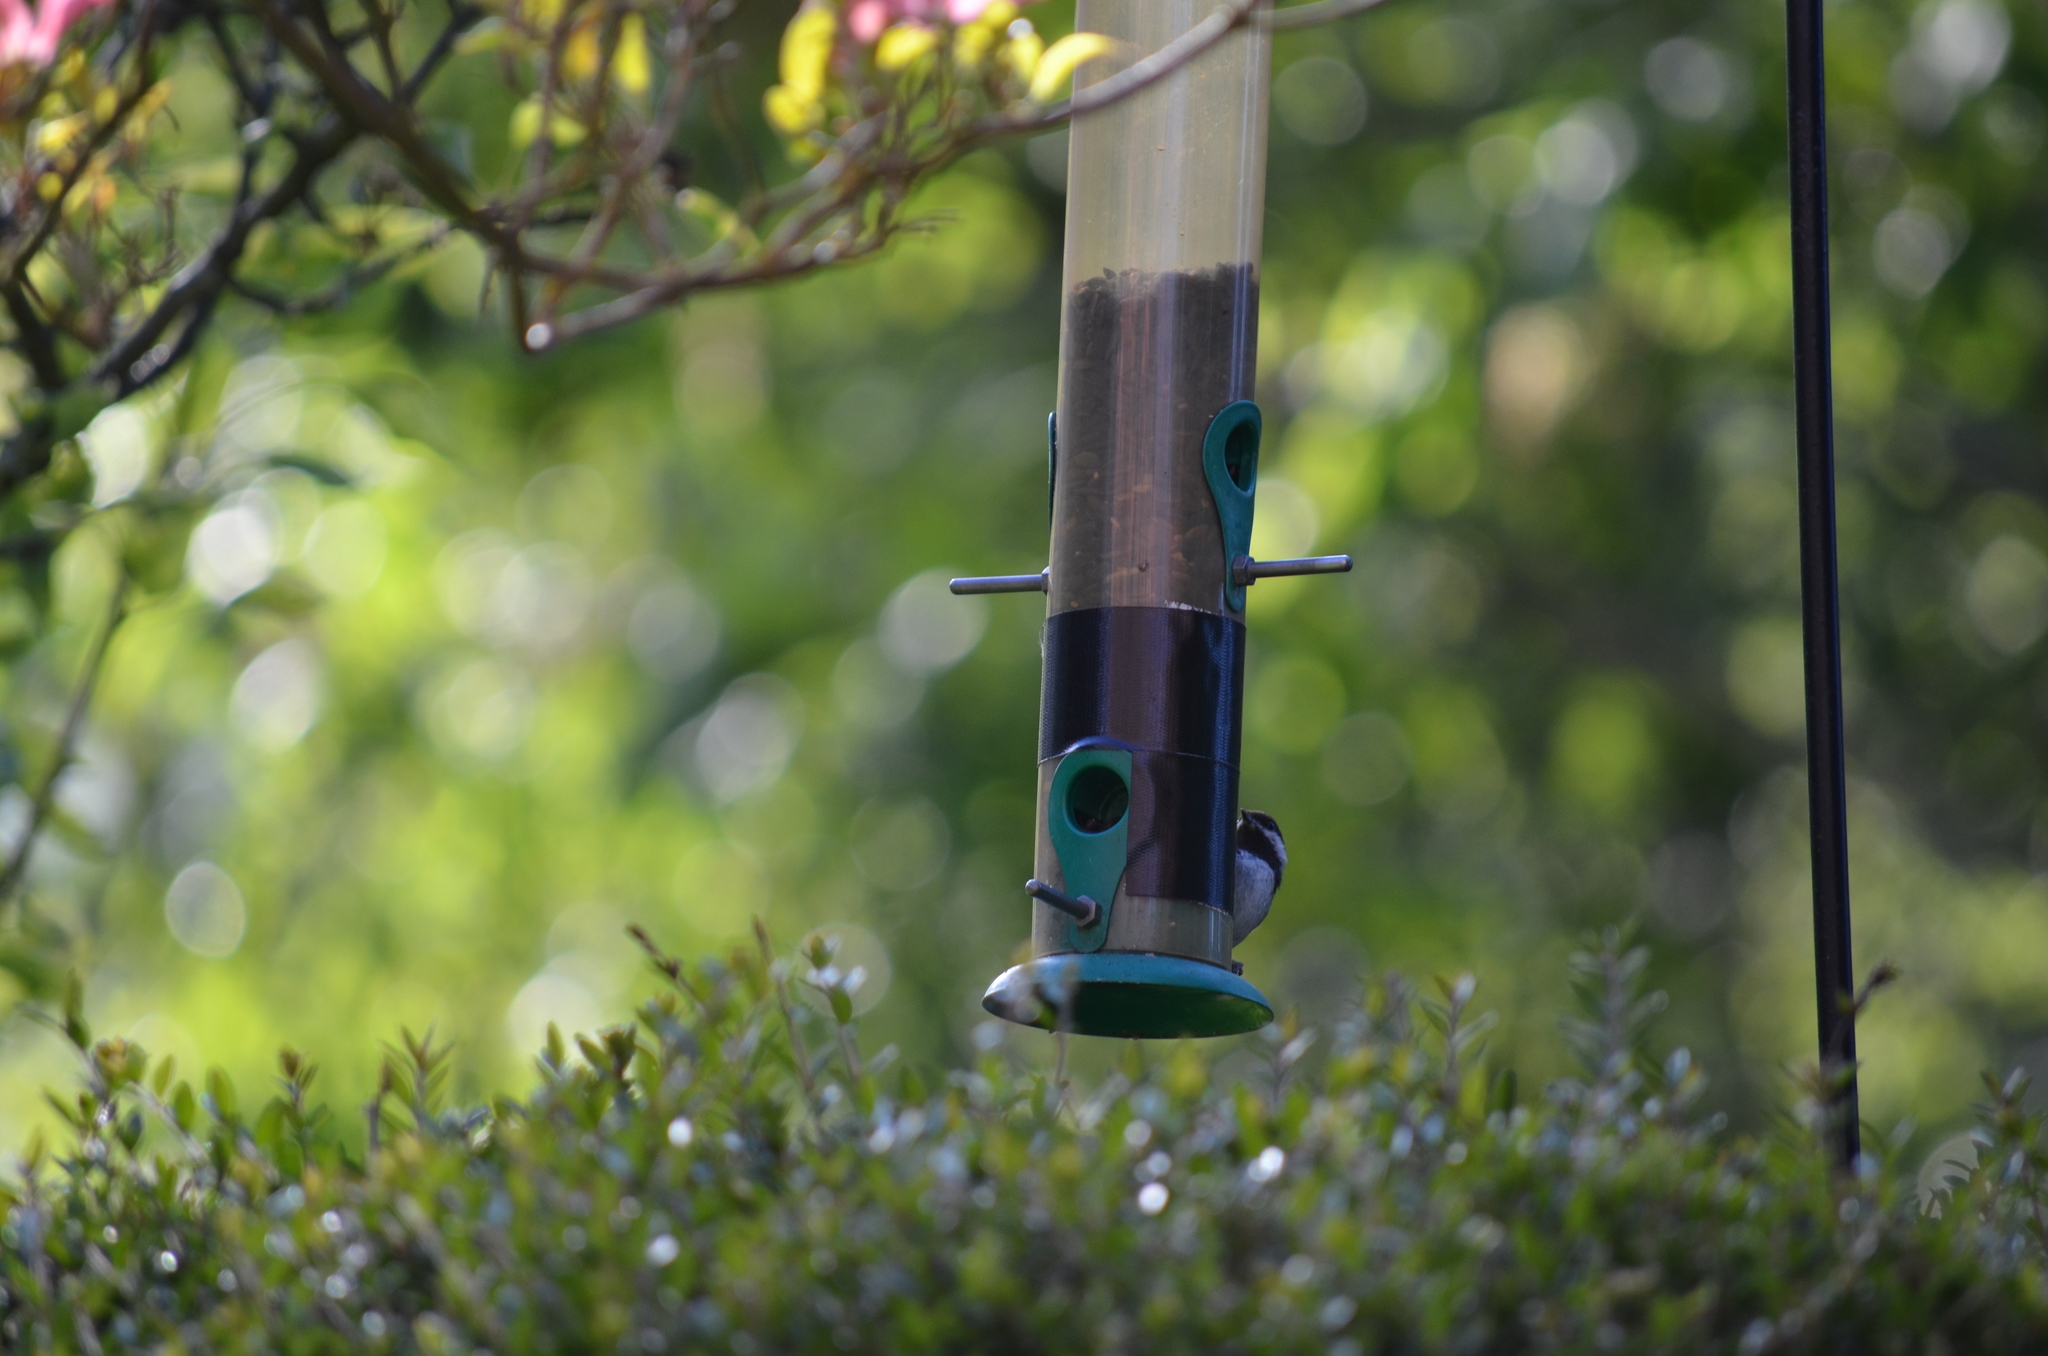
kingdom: Animalia
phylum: Chordata
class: Aves
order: Passeriformes
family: Paridae
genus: Poecile
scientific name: Poecile rufescens
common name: Chestnut-backed chickadee
